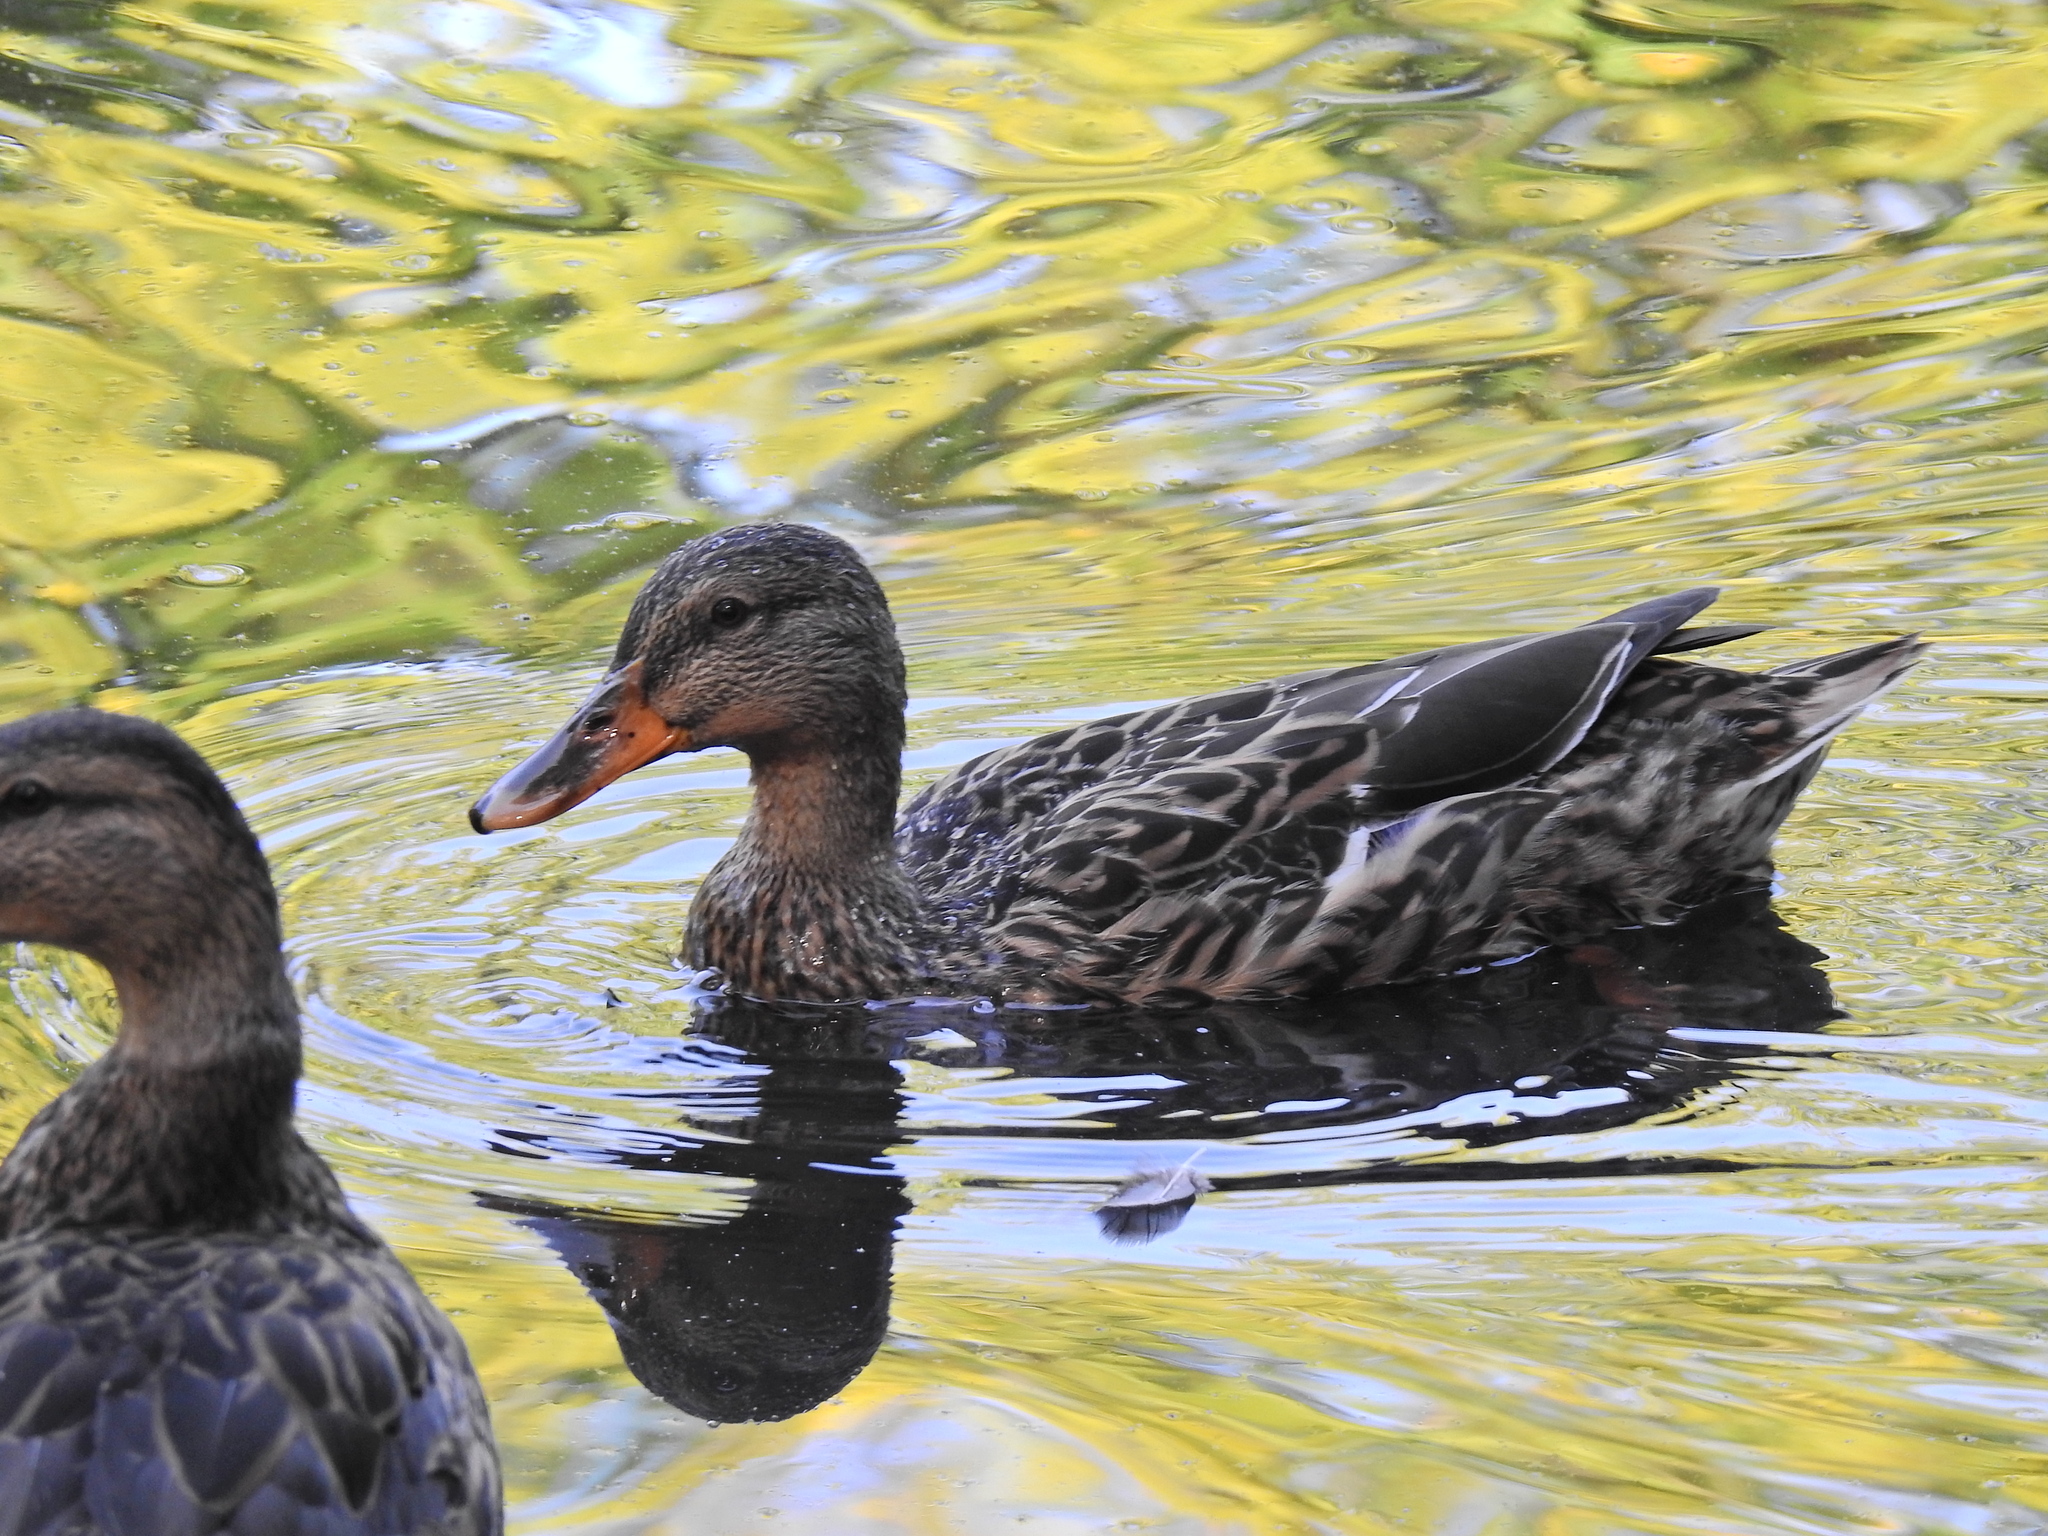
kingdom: Animalia
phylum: Chordata
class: Aves
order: Anseriformes
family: Anatidae
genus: Anas
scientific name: Anas platyrhynchos
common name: Mallard
